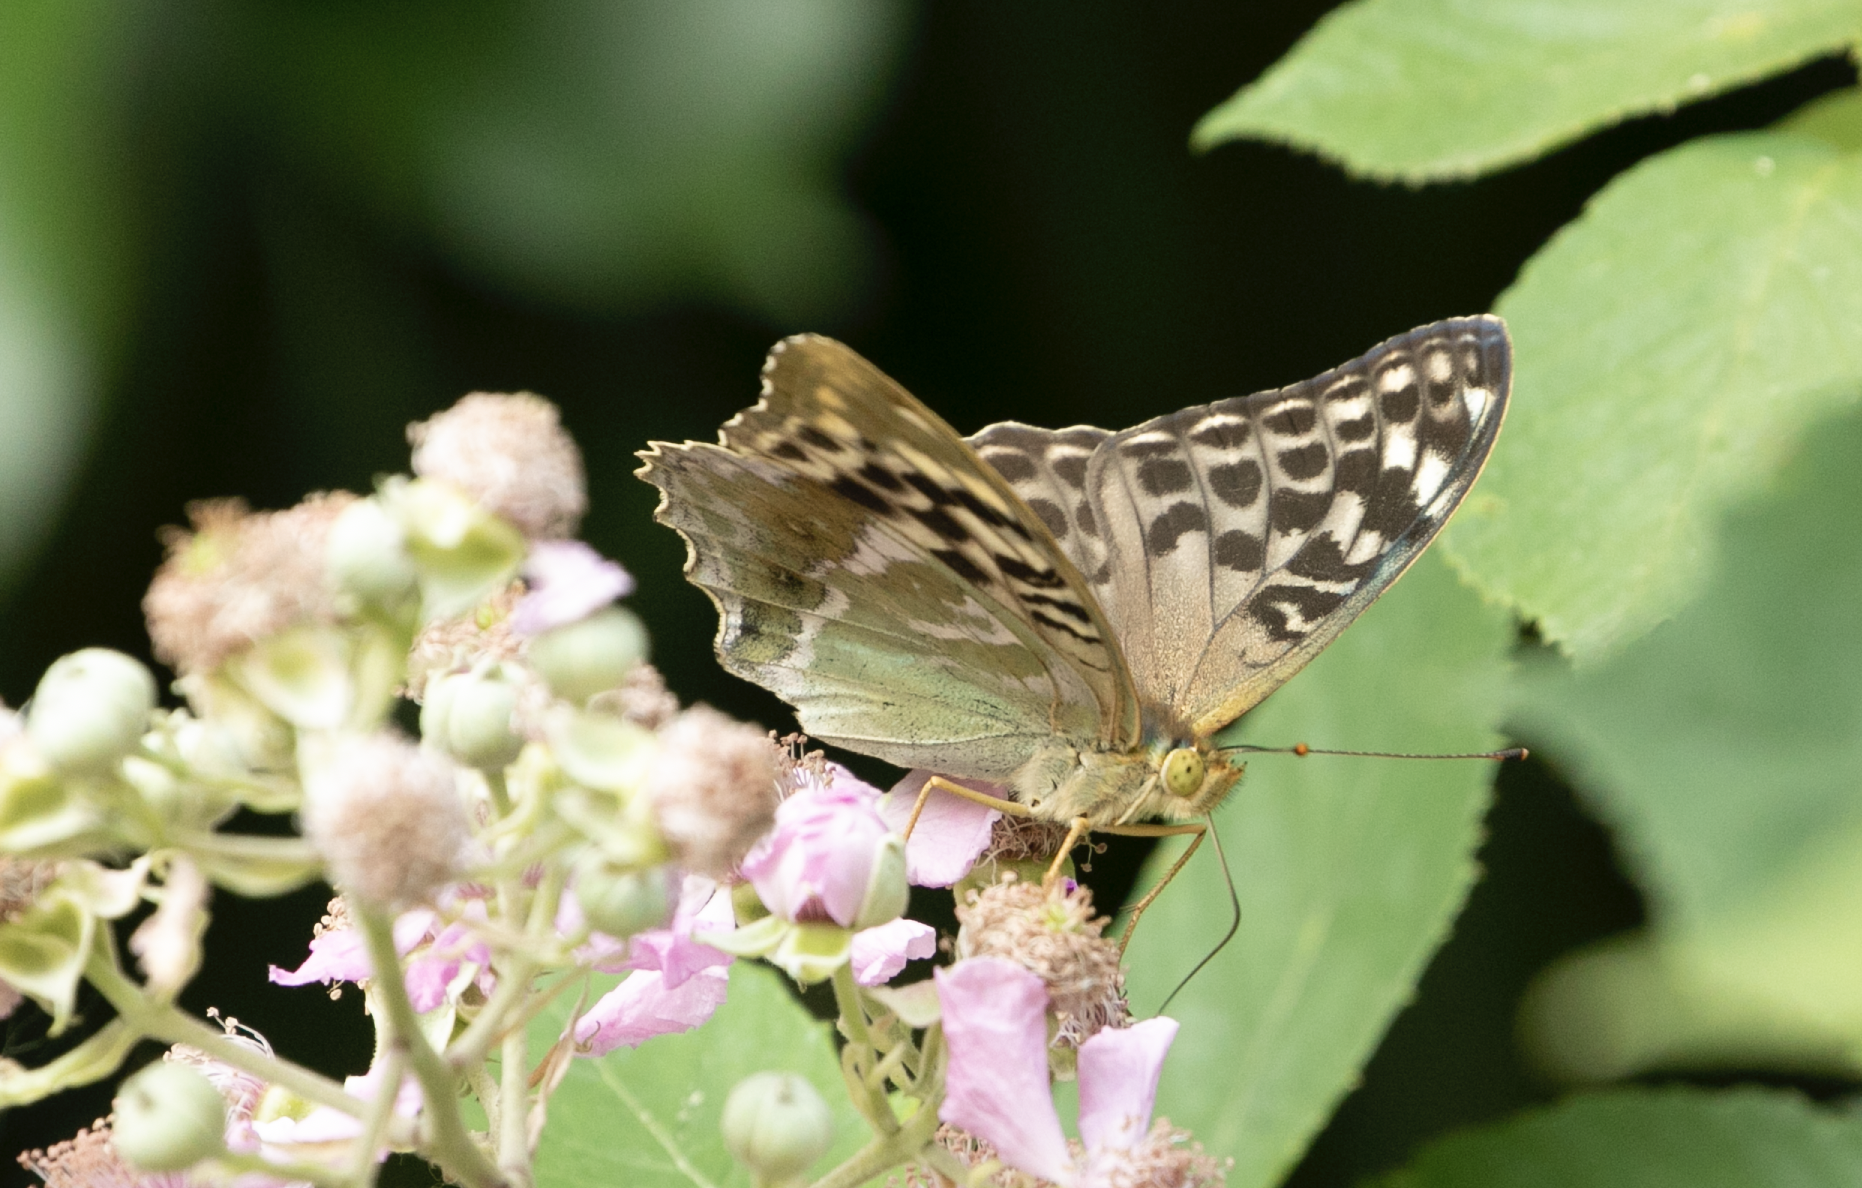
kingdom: Animalia
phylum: Arthropoda
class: Insecta
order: Lepidoptera
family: Nymphalidae
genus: Argynnis
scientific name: Argynnis paphia
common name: Silver-washed fritillary
